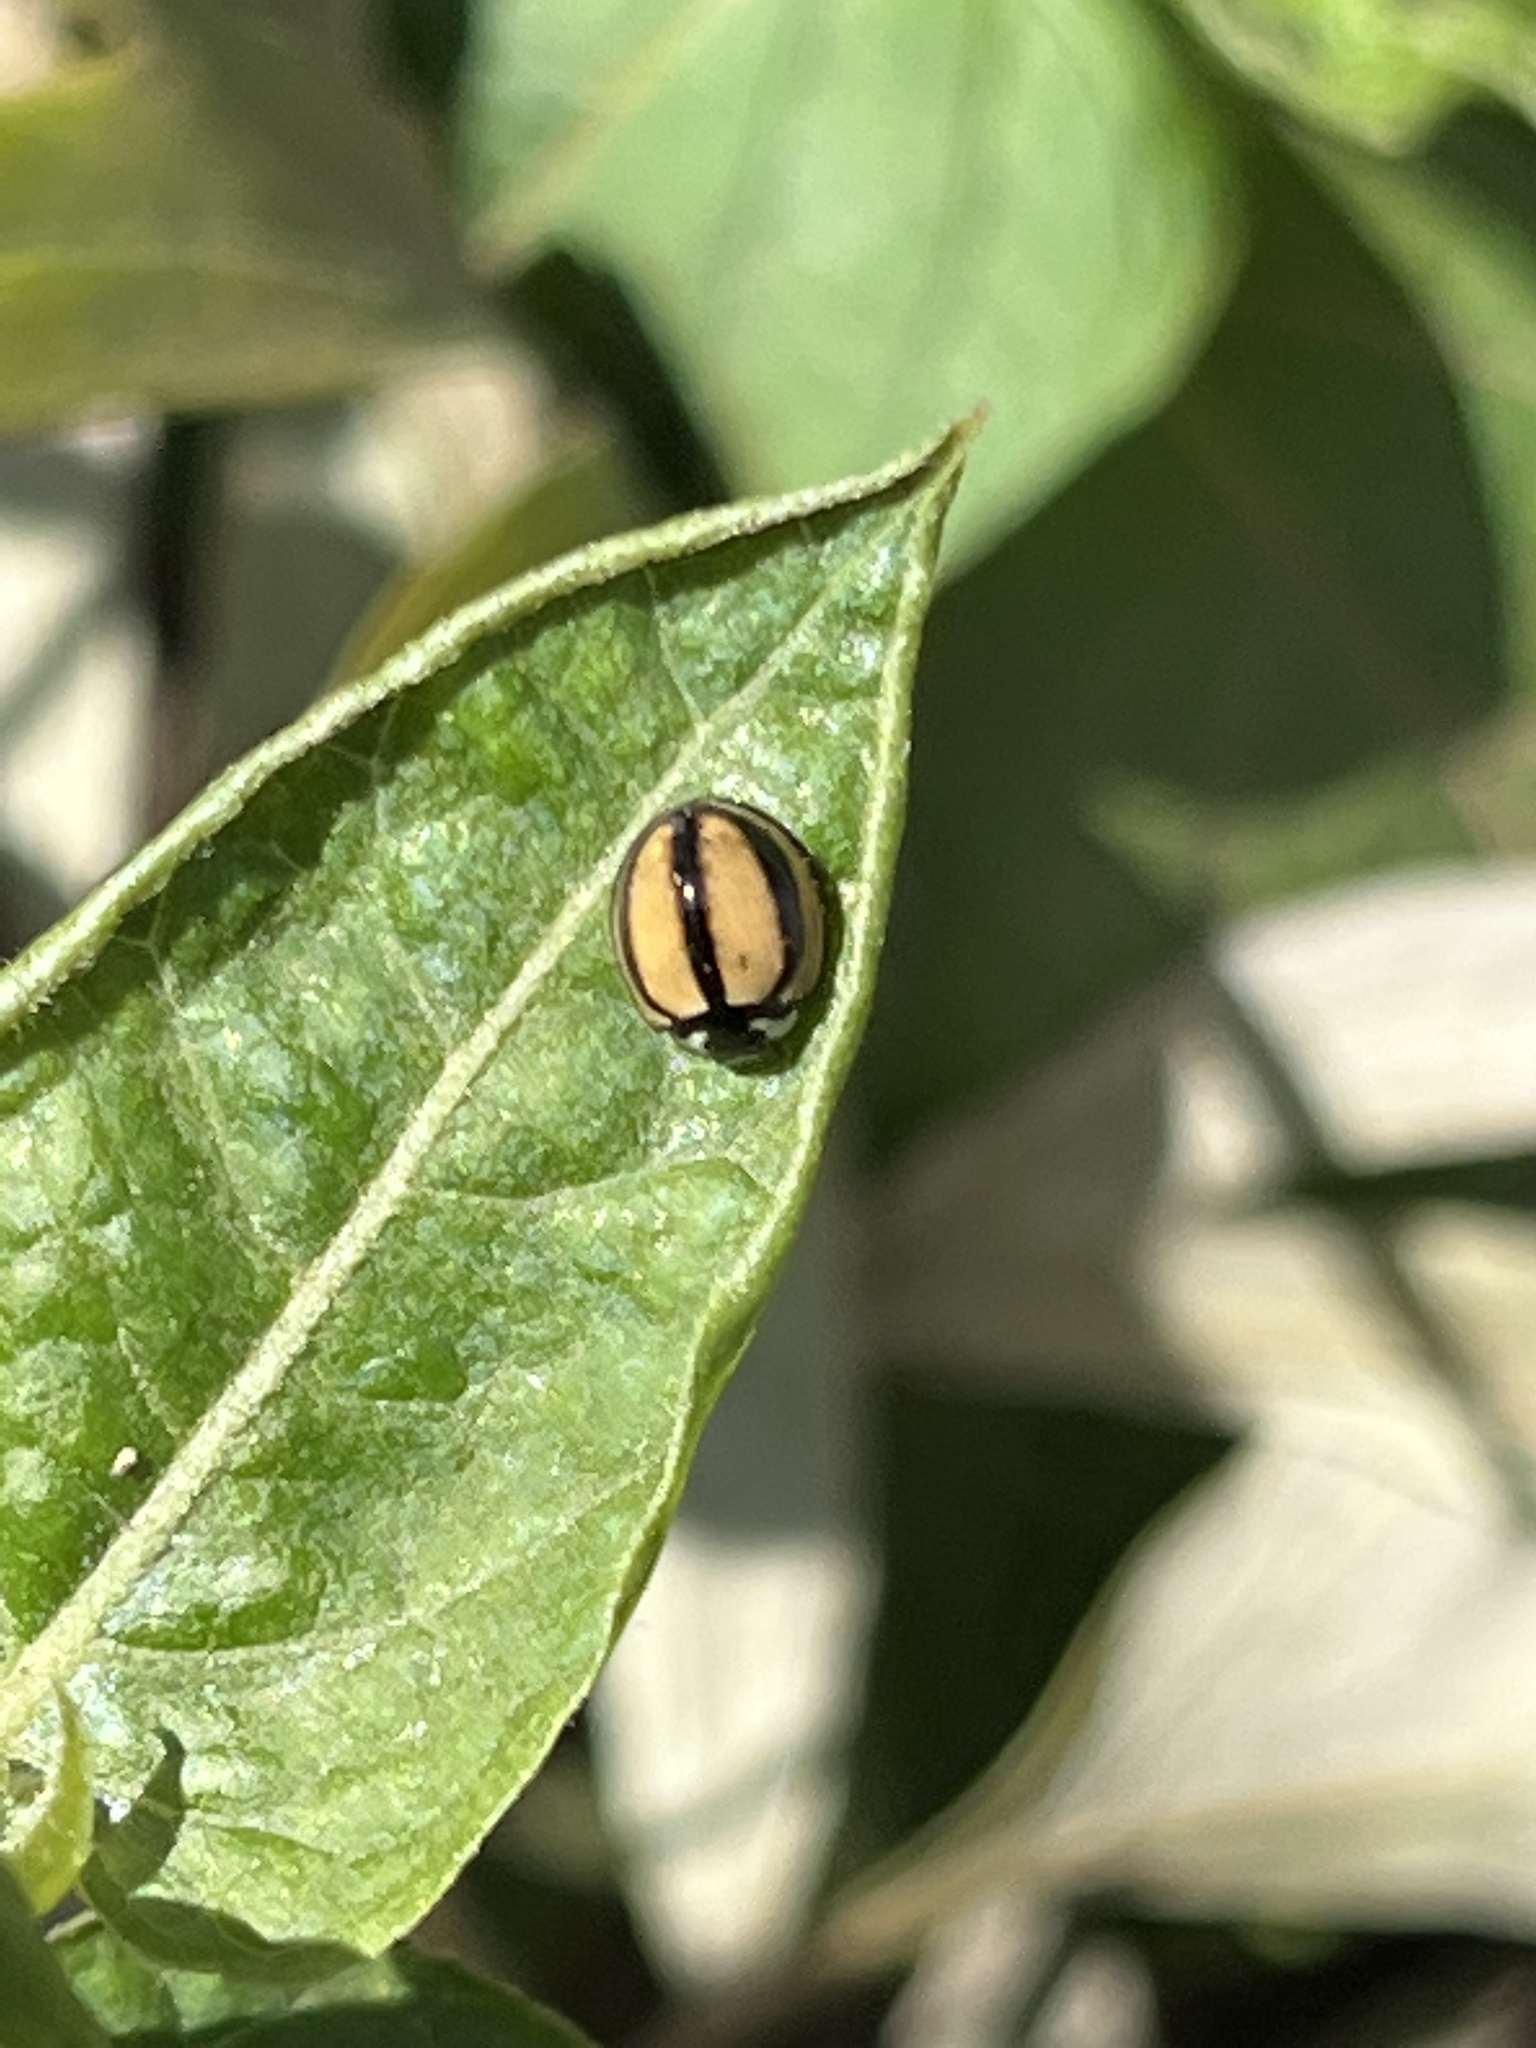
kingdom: Animalia
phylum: Arthropoda
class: Insecta
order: Coleoptera
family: Coccinellidae
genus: Cheilomenes
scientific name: Cheilomenes propinqua
